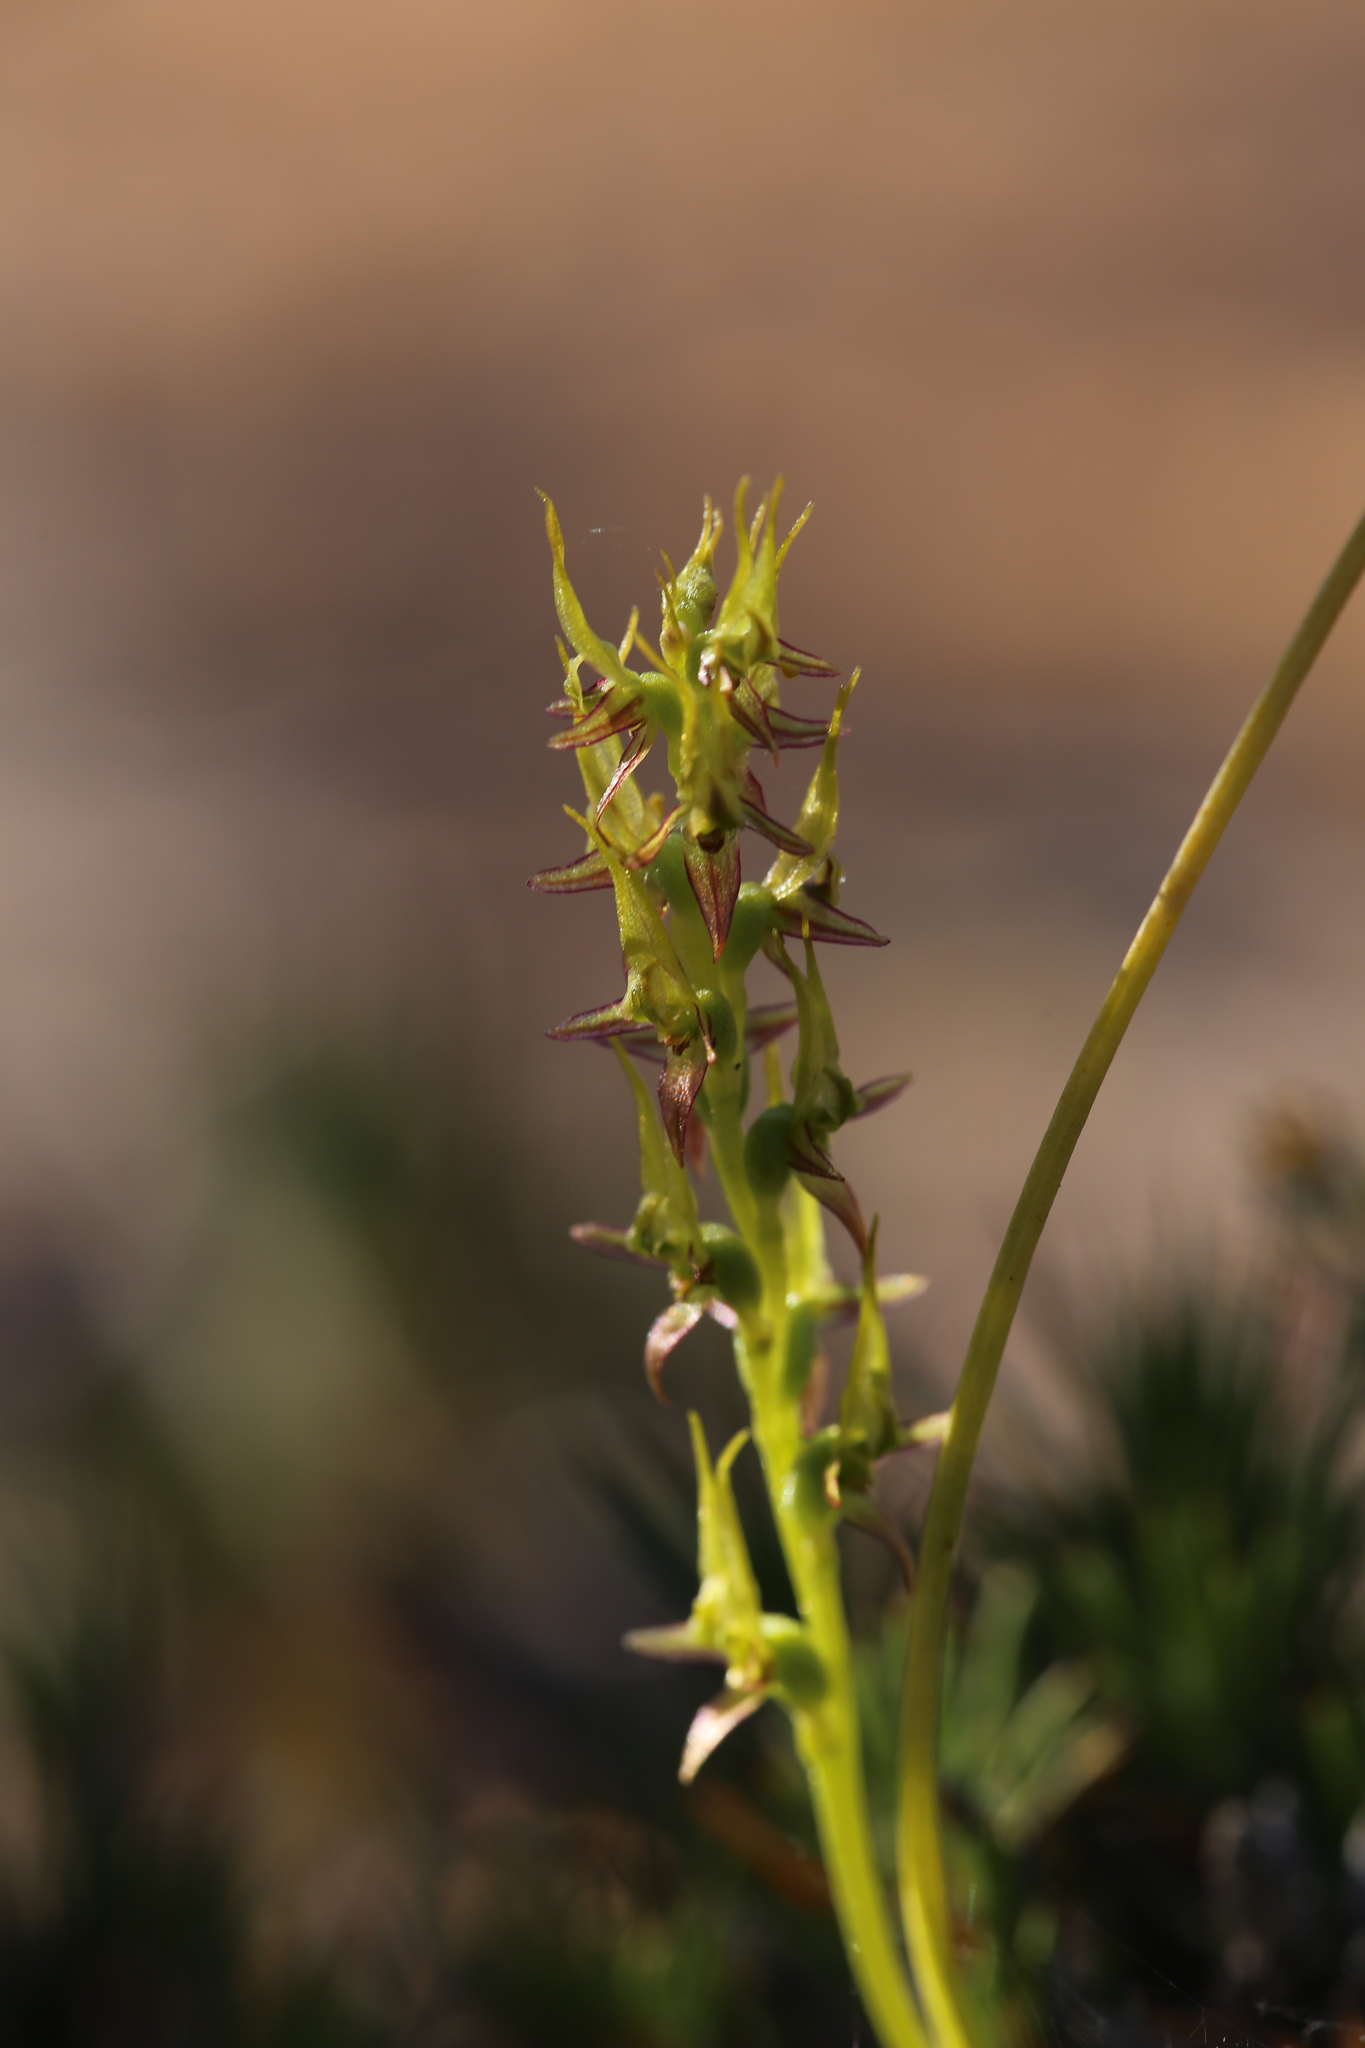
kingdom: Plantae
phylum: Tracheophyta
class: Liliopsida
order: Asparagales
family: Orchidaceae
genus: Prasophyllum
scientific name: Prasophyllum gracile
